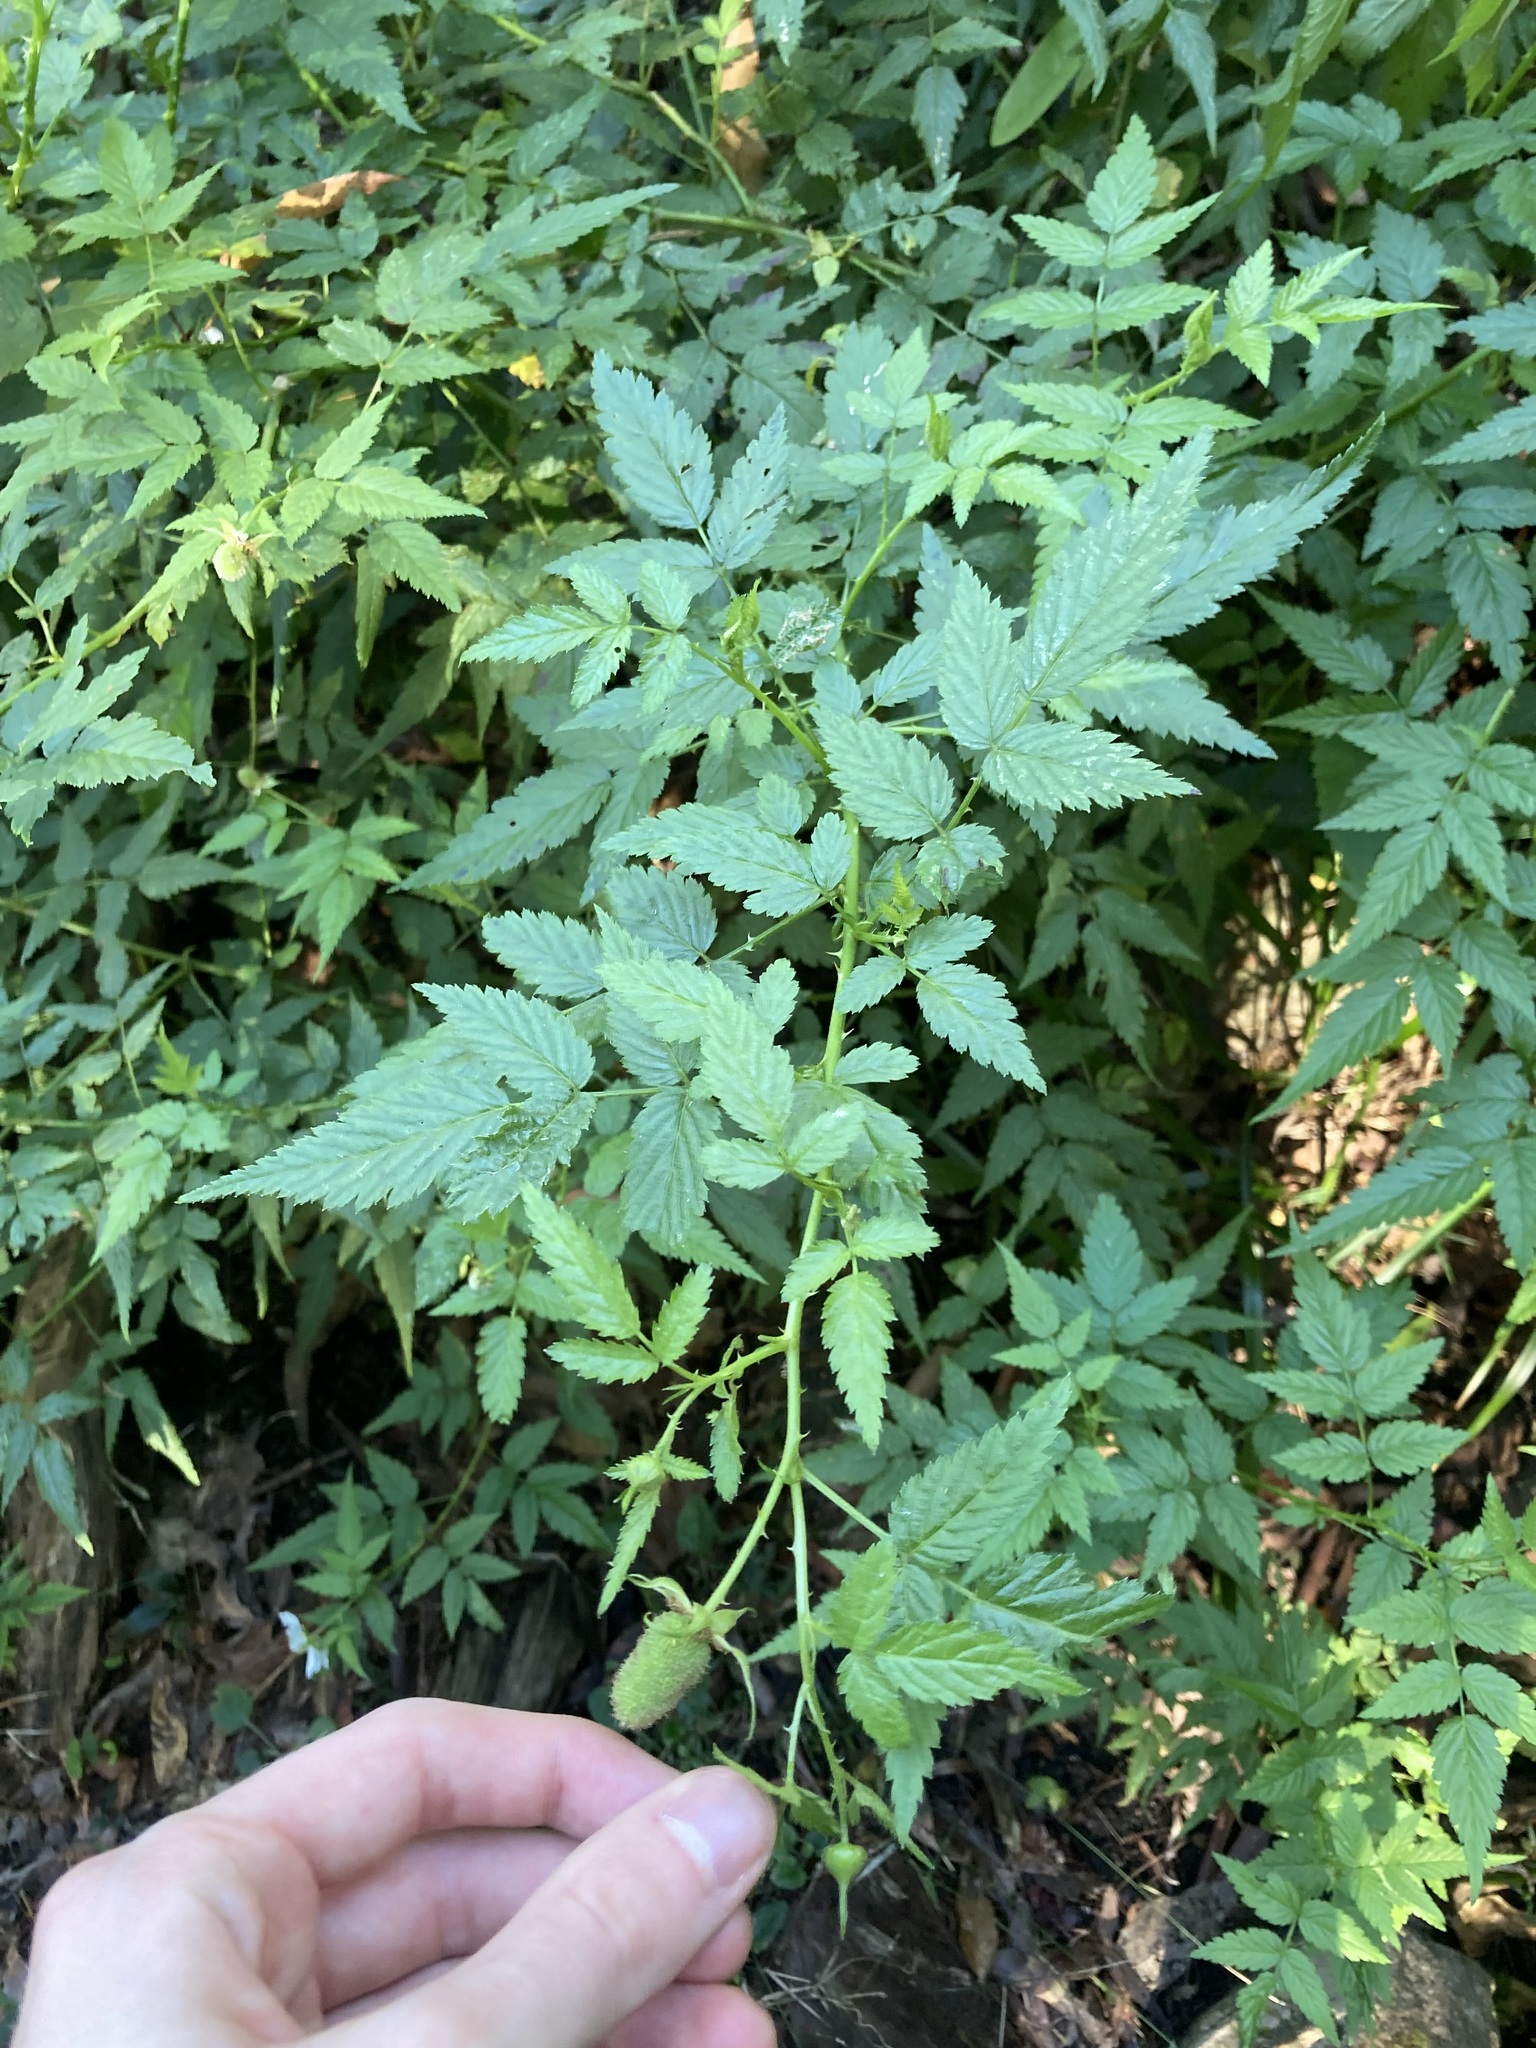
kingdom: Plantae
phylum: Tracheophyta
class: Magnoliopsida
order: Rosales
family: Rosaceae
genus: Rubus
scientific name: Rubus rosifolius
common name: Roseleaf raspberry
